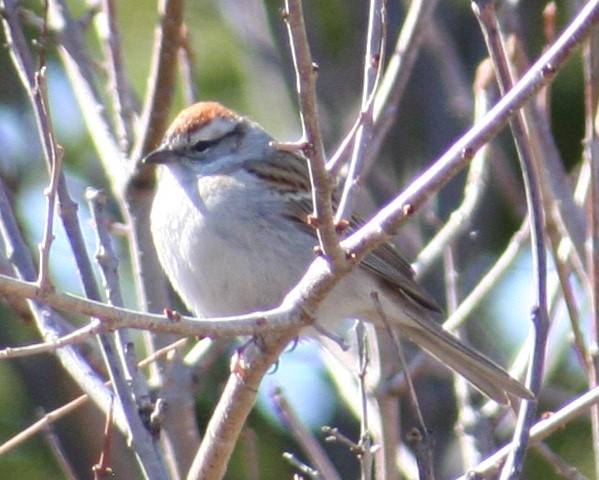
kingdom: Animalia
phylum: Chordata
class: Aves
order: Passeriformes
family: Passerellidae
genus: Spizella
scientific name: Spizella passerina
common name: Chipping sparrow
